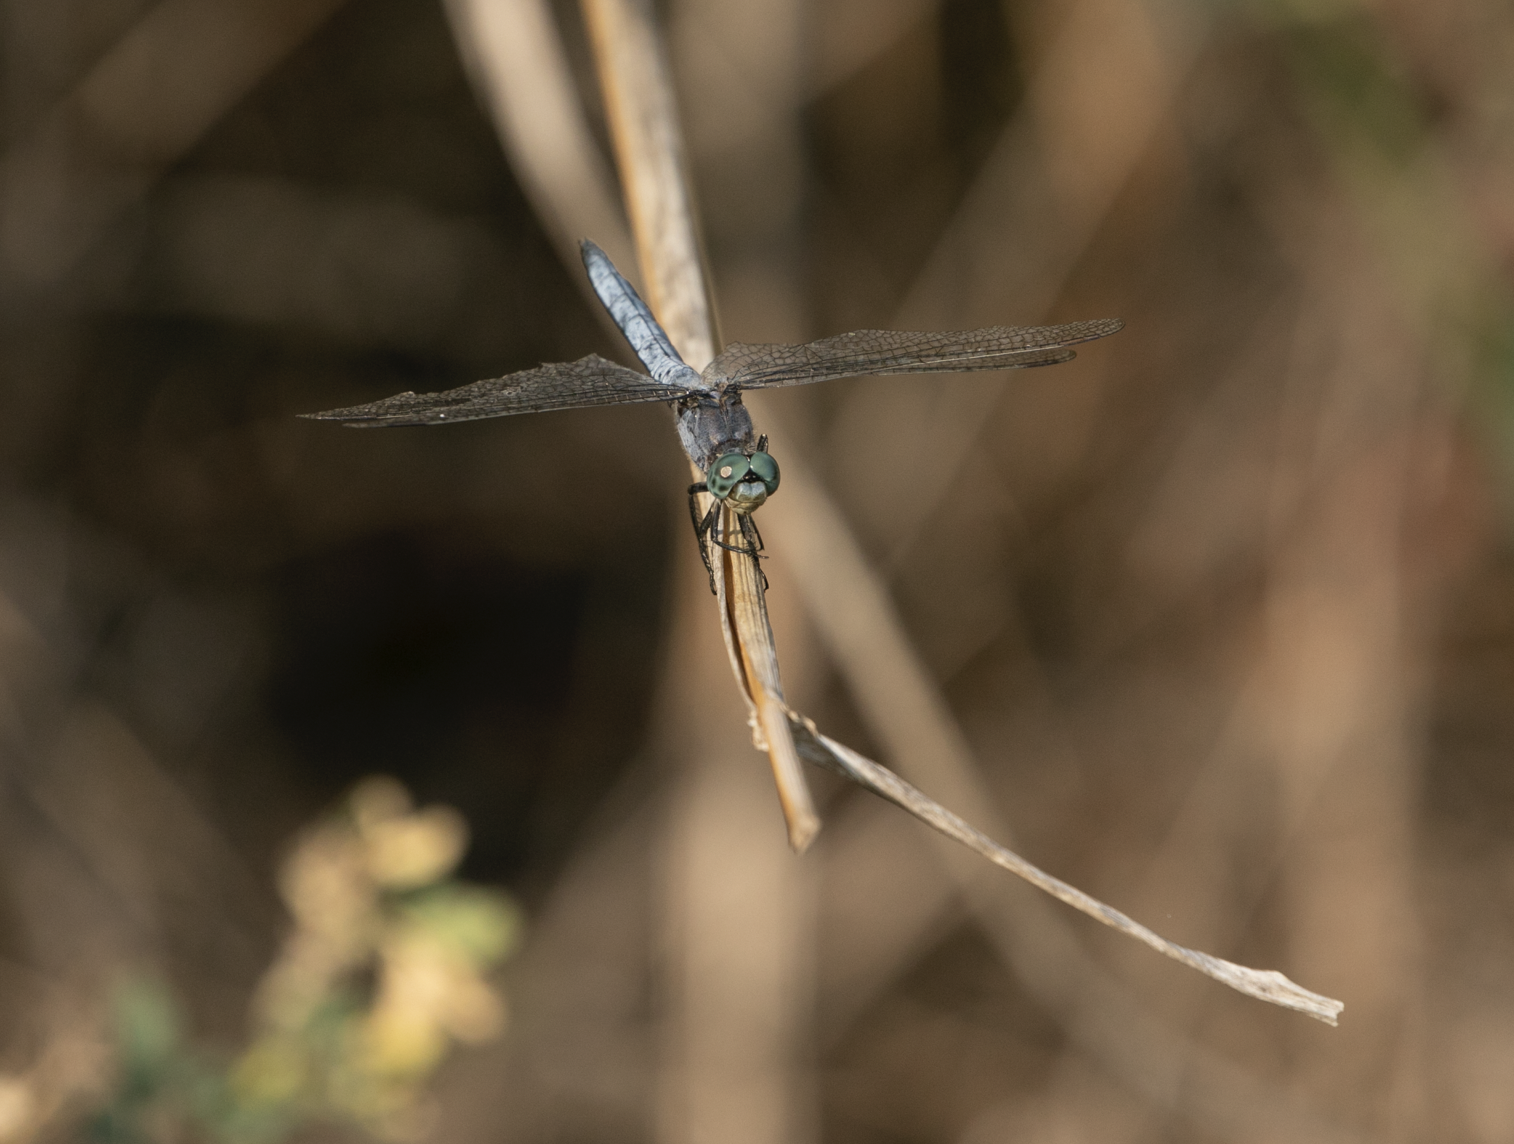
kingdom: Animalia
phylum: Arthropoda
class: Insecta
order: Odonata
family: Libellulidae
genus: Orthetrum
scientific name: Orthetrum coerulescens
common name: Keeled skimmer
